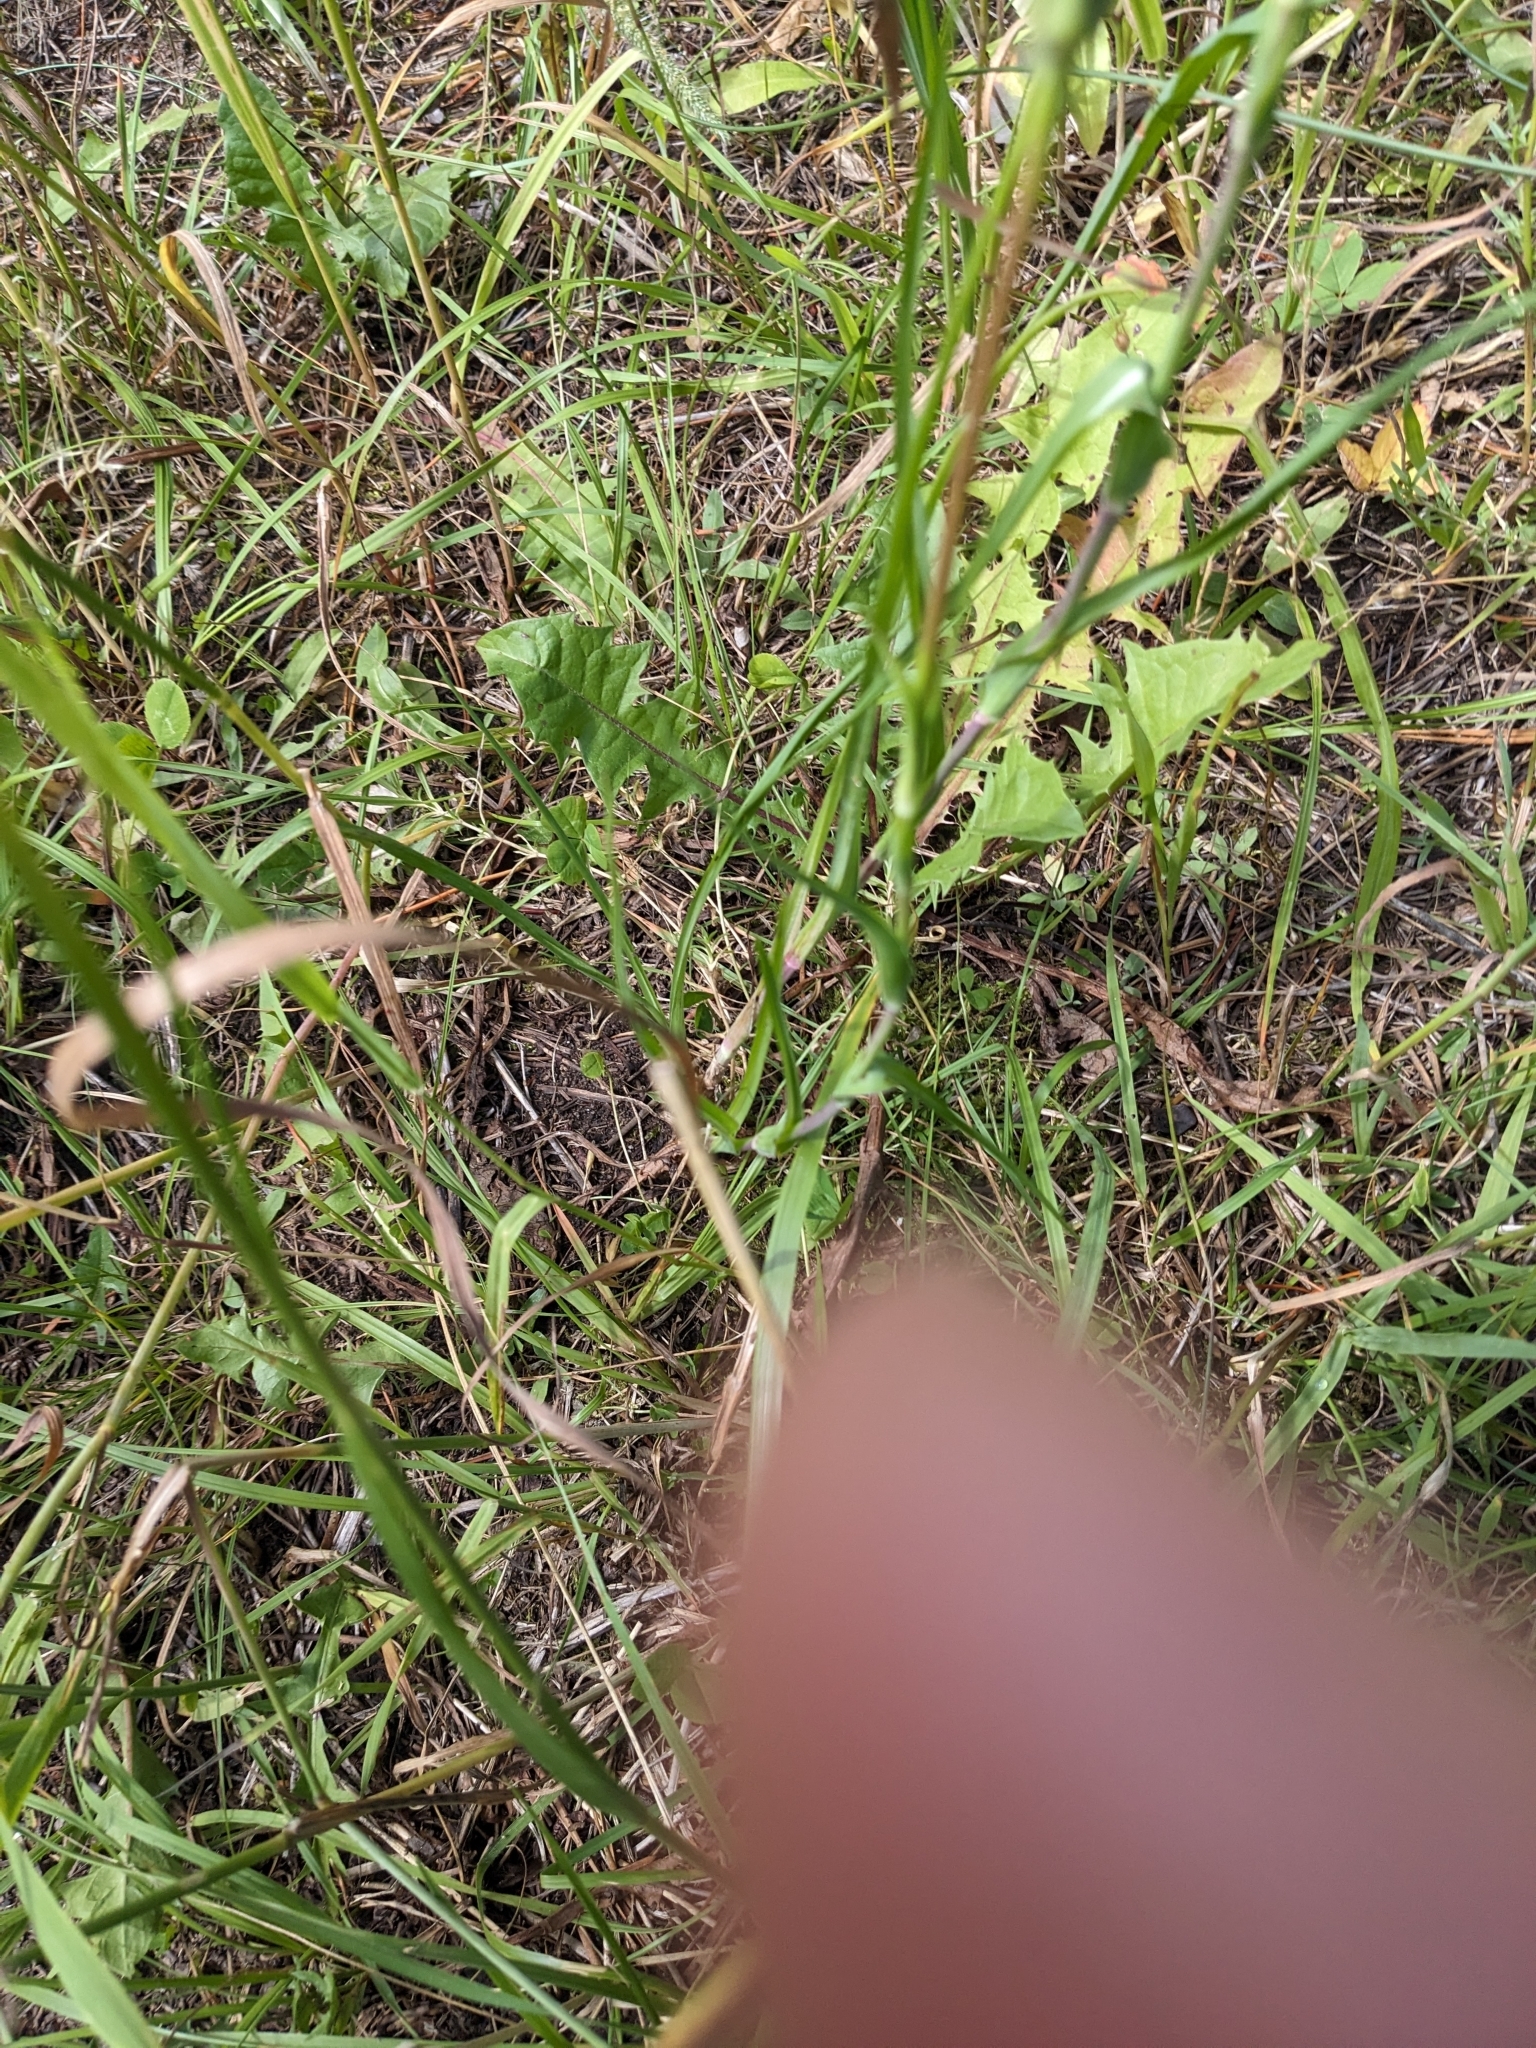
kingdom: Plantae
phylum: Tracheophyta
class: Magnoliopsida
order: Asterales
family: Asteraceae
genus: Tragopogon
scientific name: Tragopogon dubius
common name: Yellow salsify
